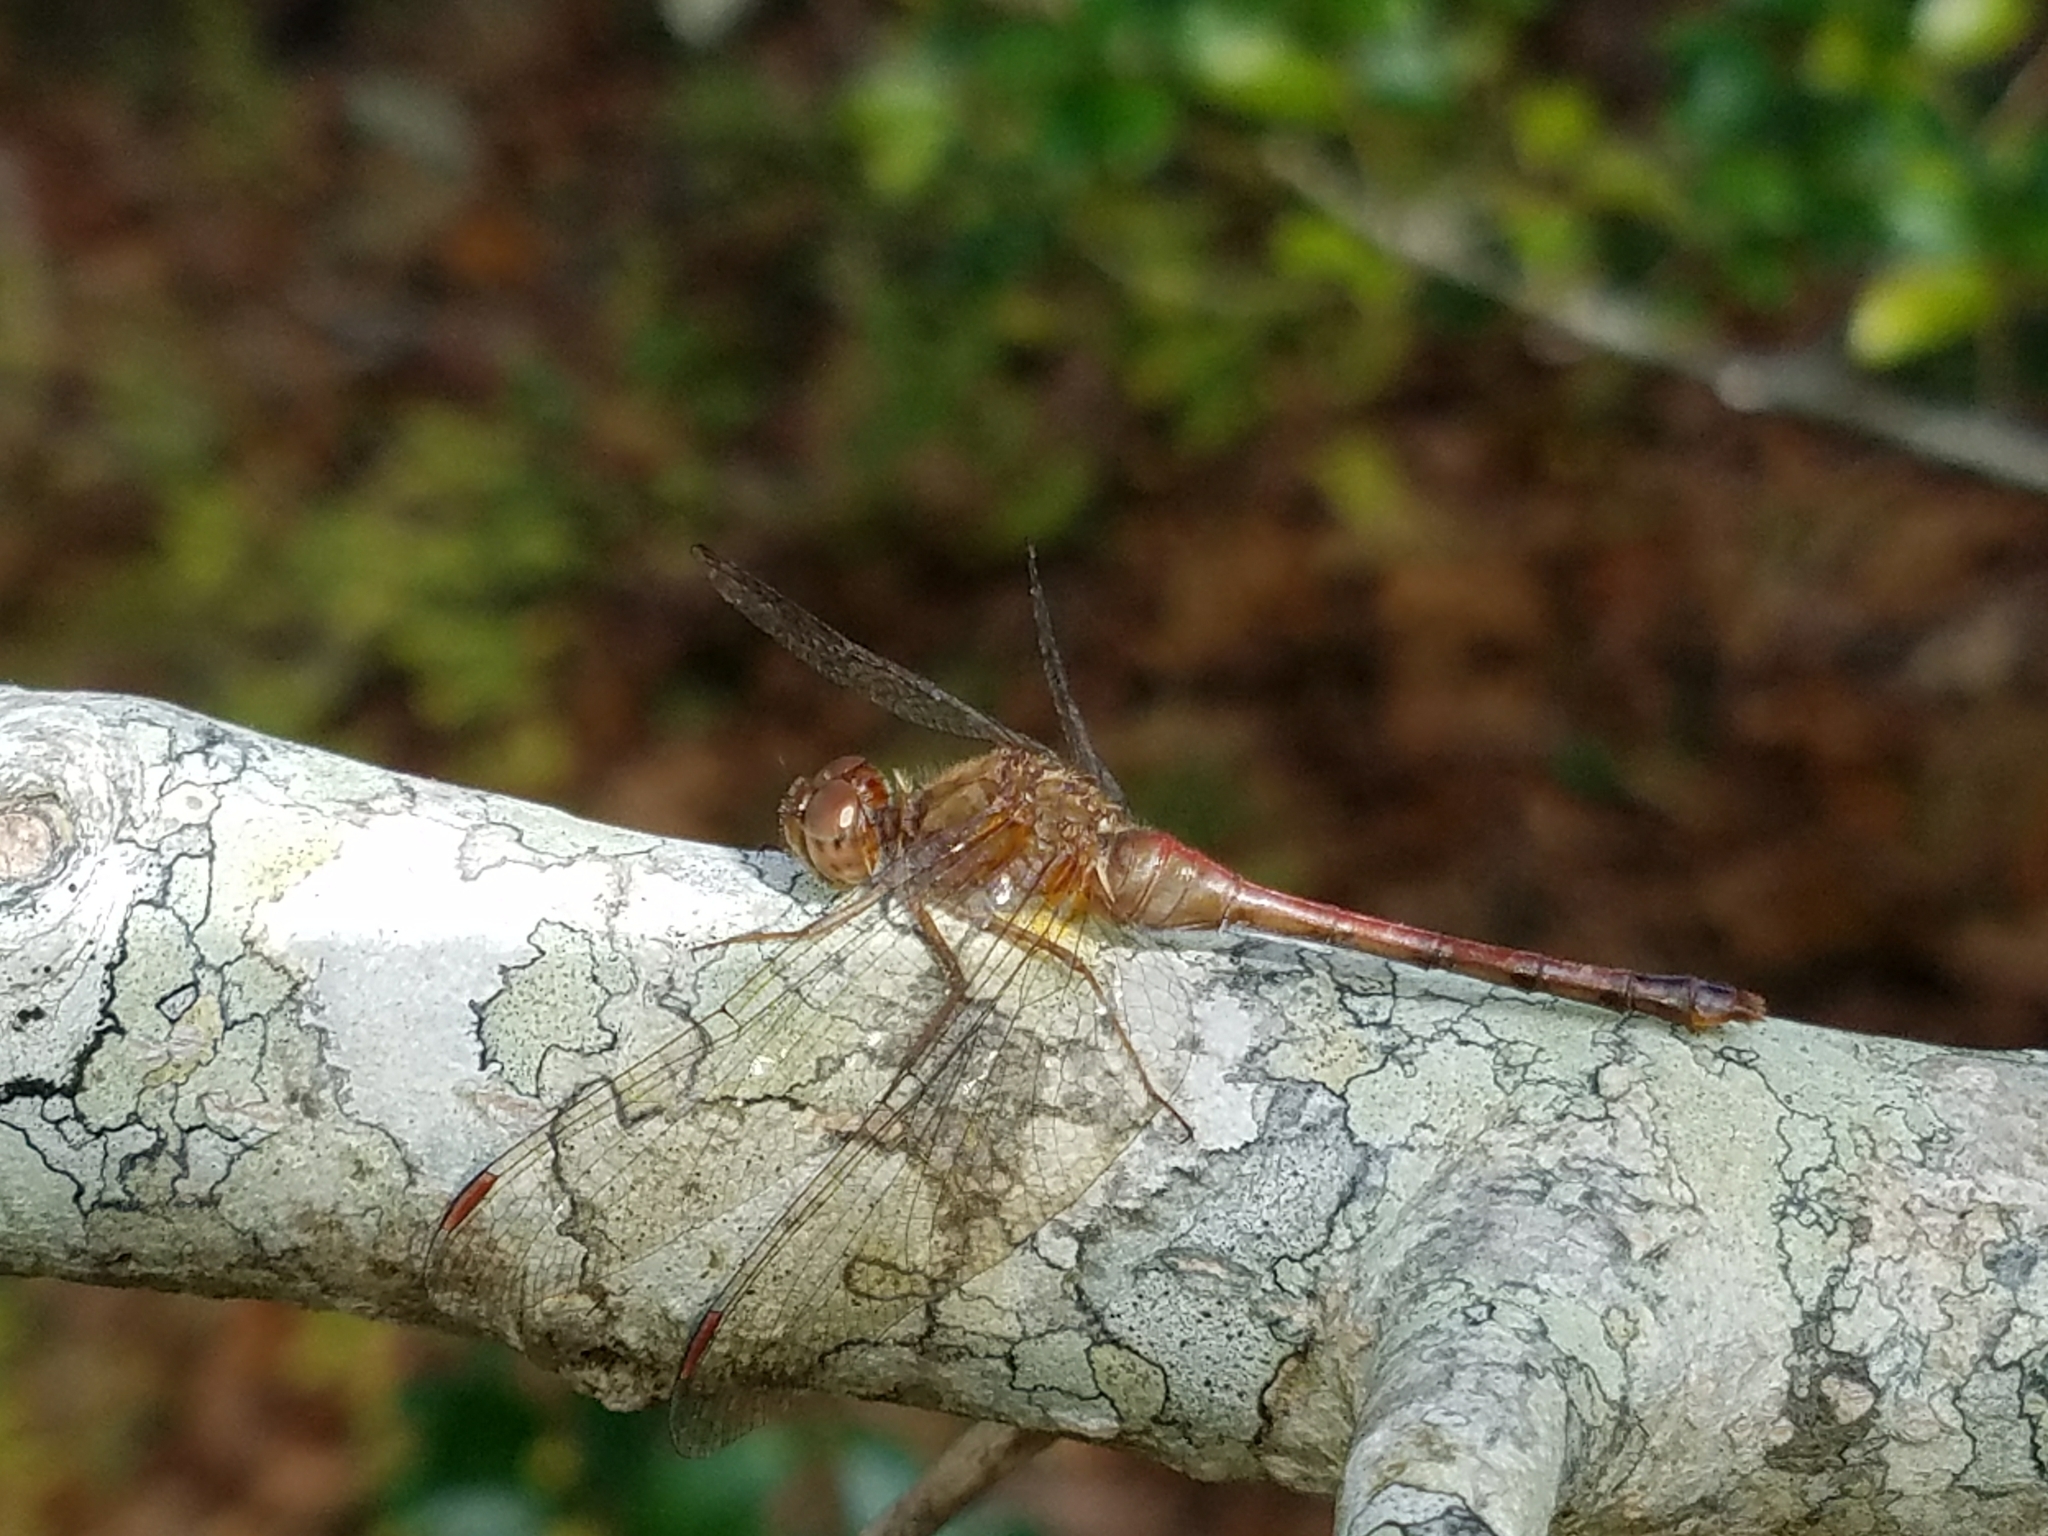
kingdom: Animalia
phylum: Arthropoda
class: Insecta
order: Odonata
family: Libellulidae
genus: Sympetrum
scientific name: Sympetrum vicinum
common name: Autumn meadowhawk
